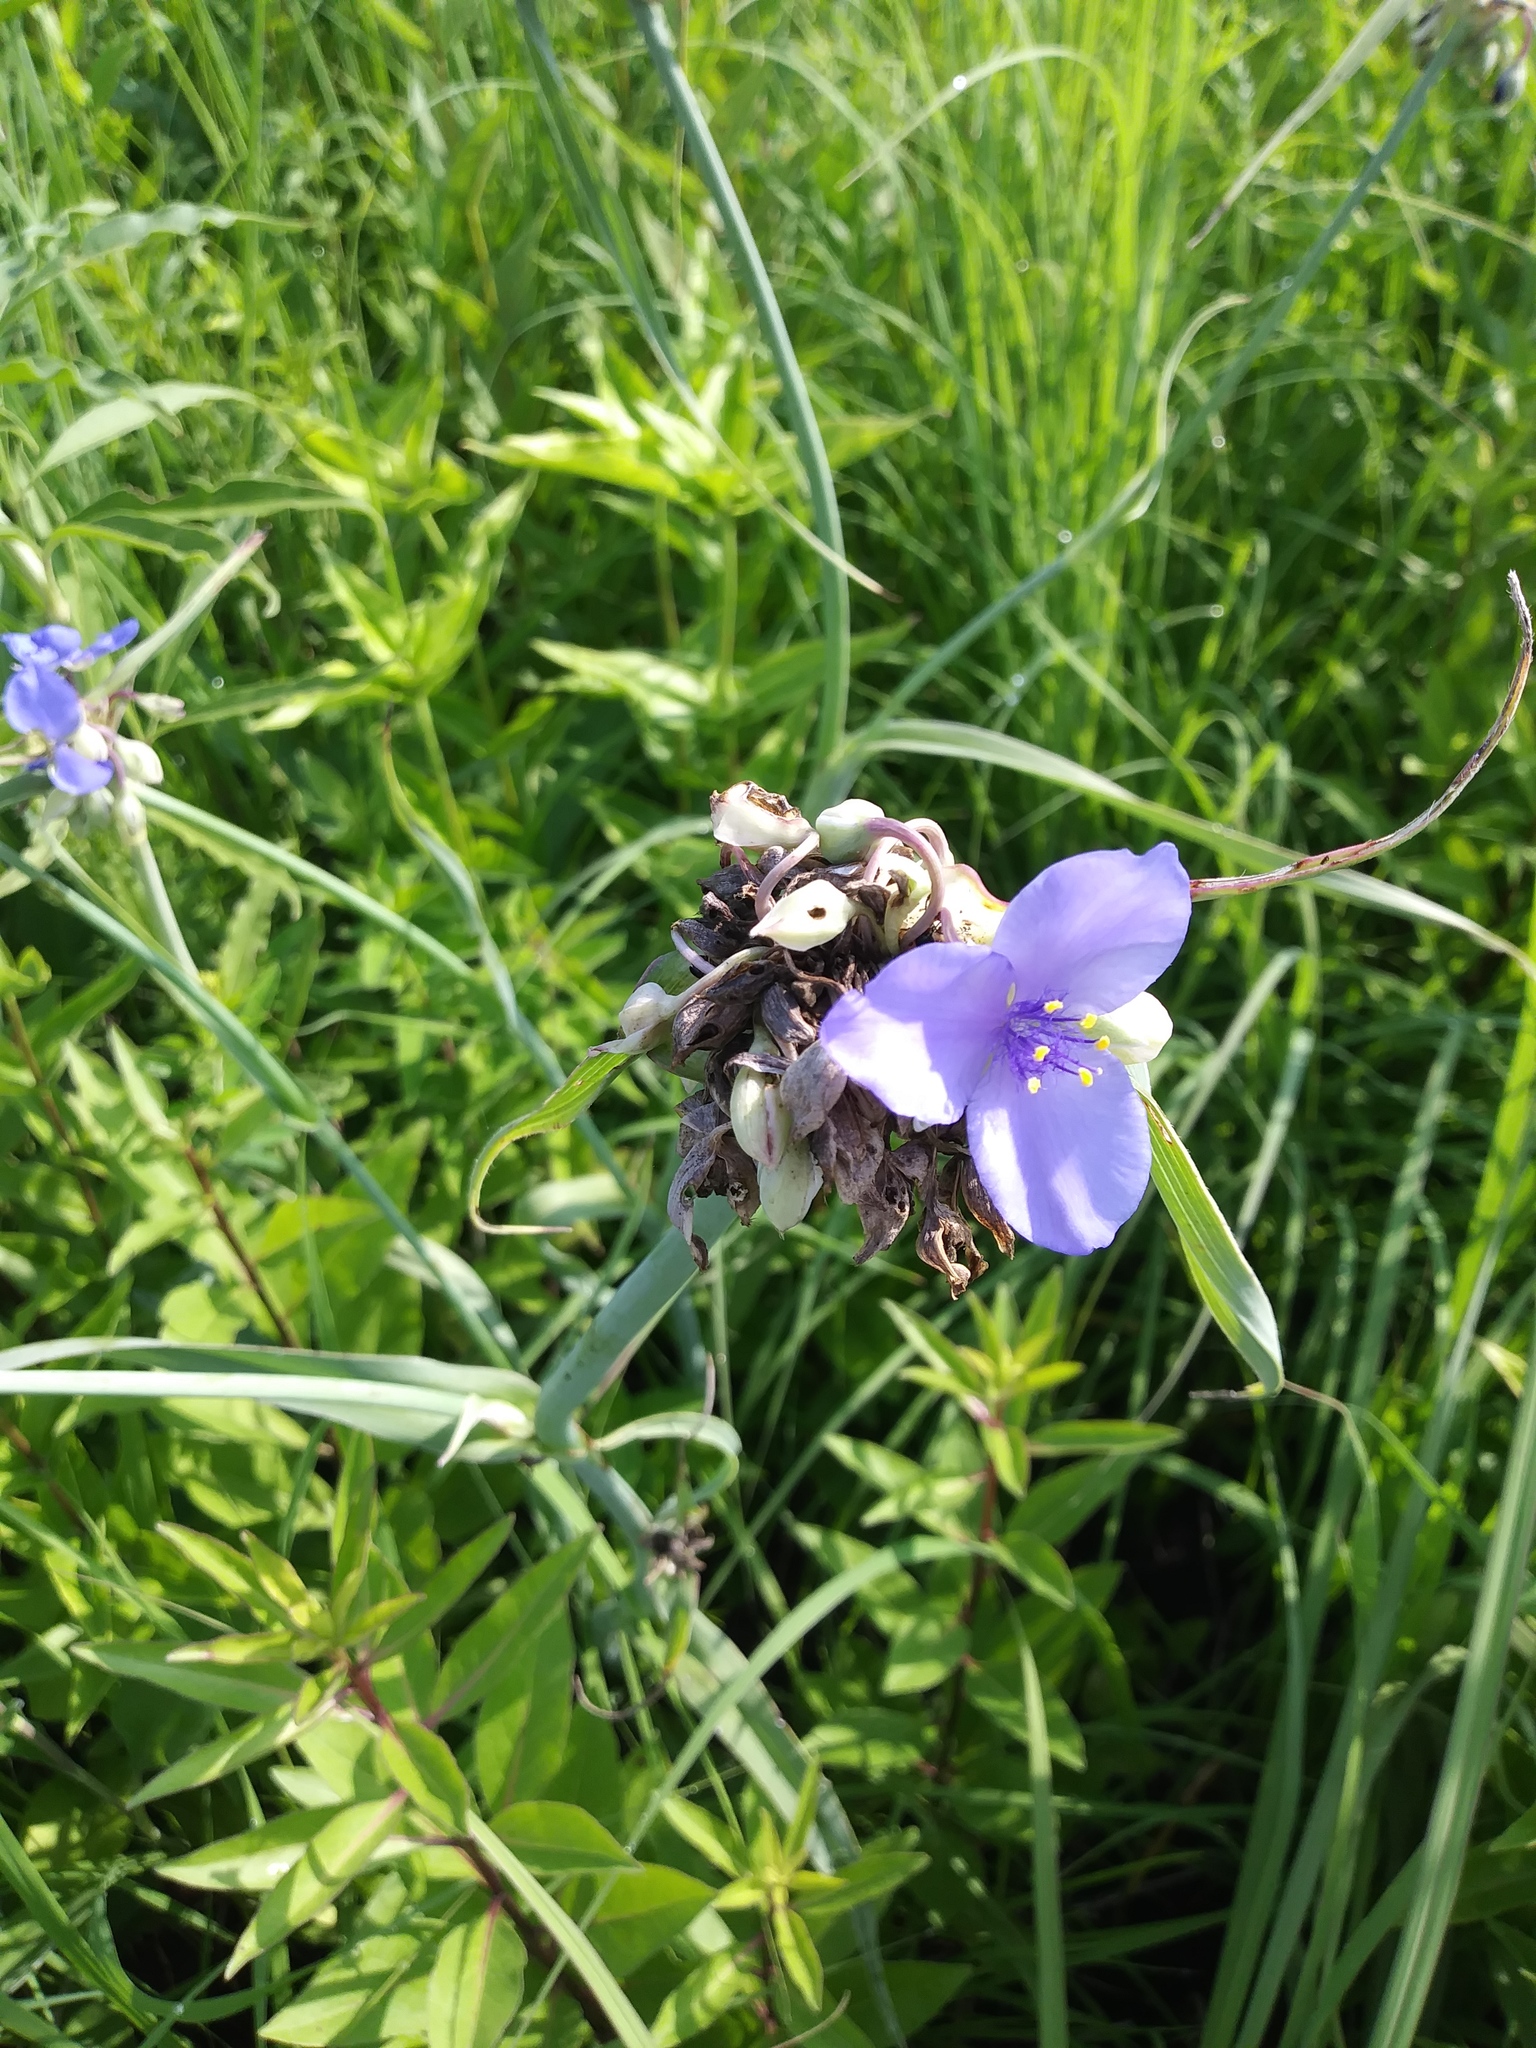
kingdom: Plantae
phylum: Tracheophyta
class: Liliopsida
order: Commelinales
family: Commelinaceae
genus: Tradescantia
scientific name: Tradescantia ohiensis
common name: Ohio spiderwort
